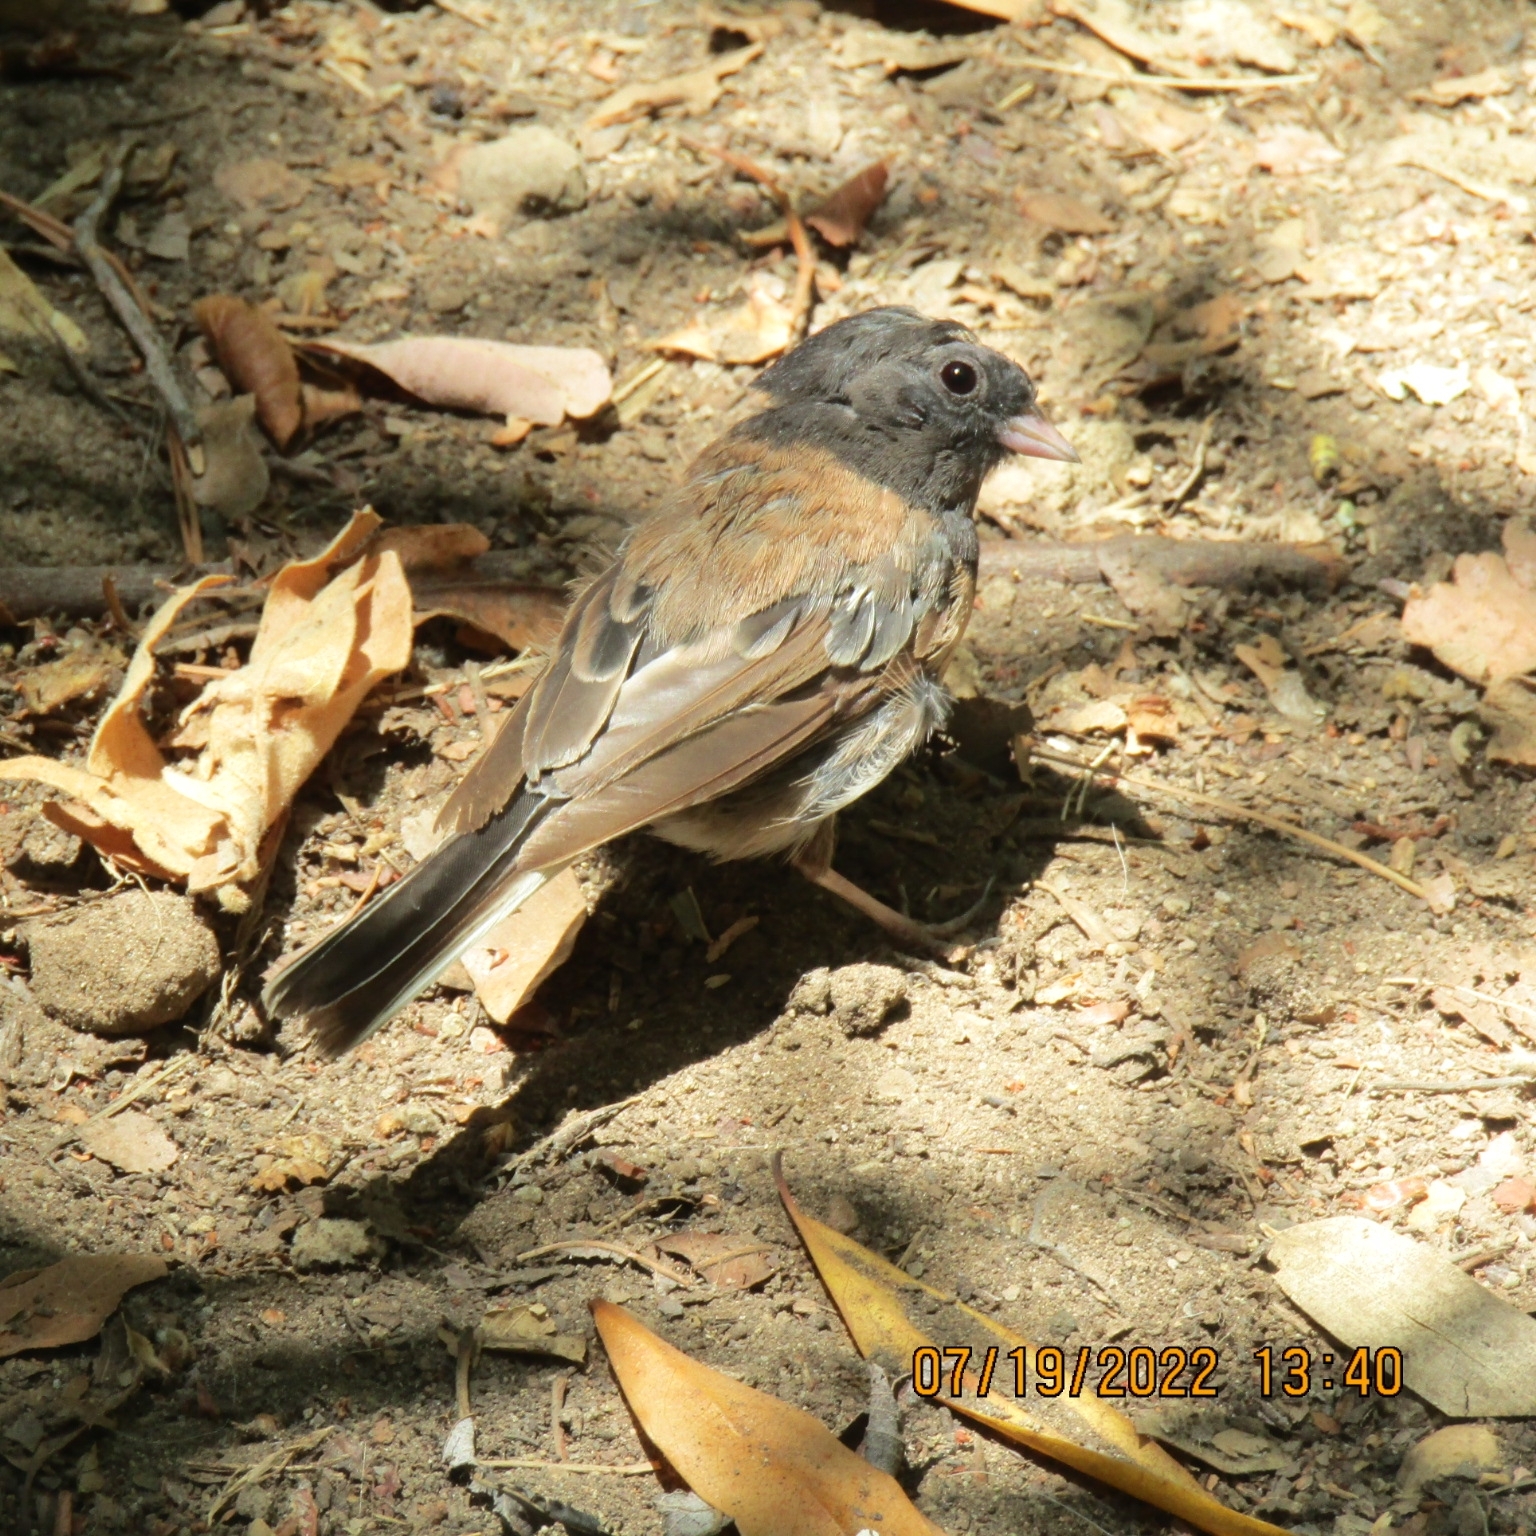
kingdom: Animalia
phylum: Chordata
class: Aves
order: Passeriformes
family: Passerellidae
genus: Junco
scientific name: Junco hyemalis
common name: Dark-eyed junco
